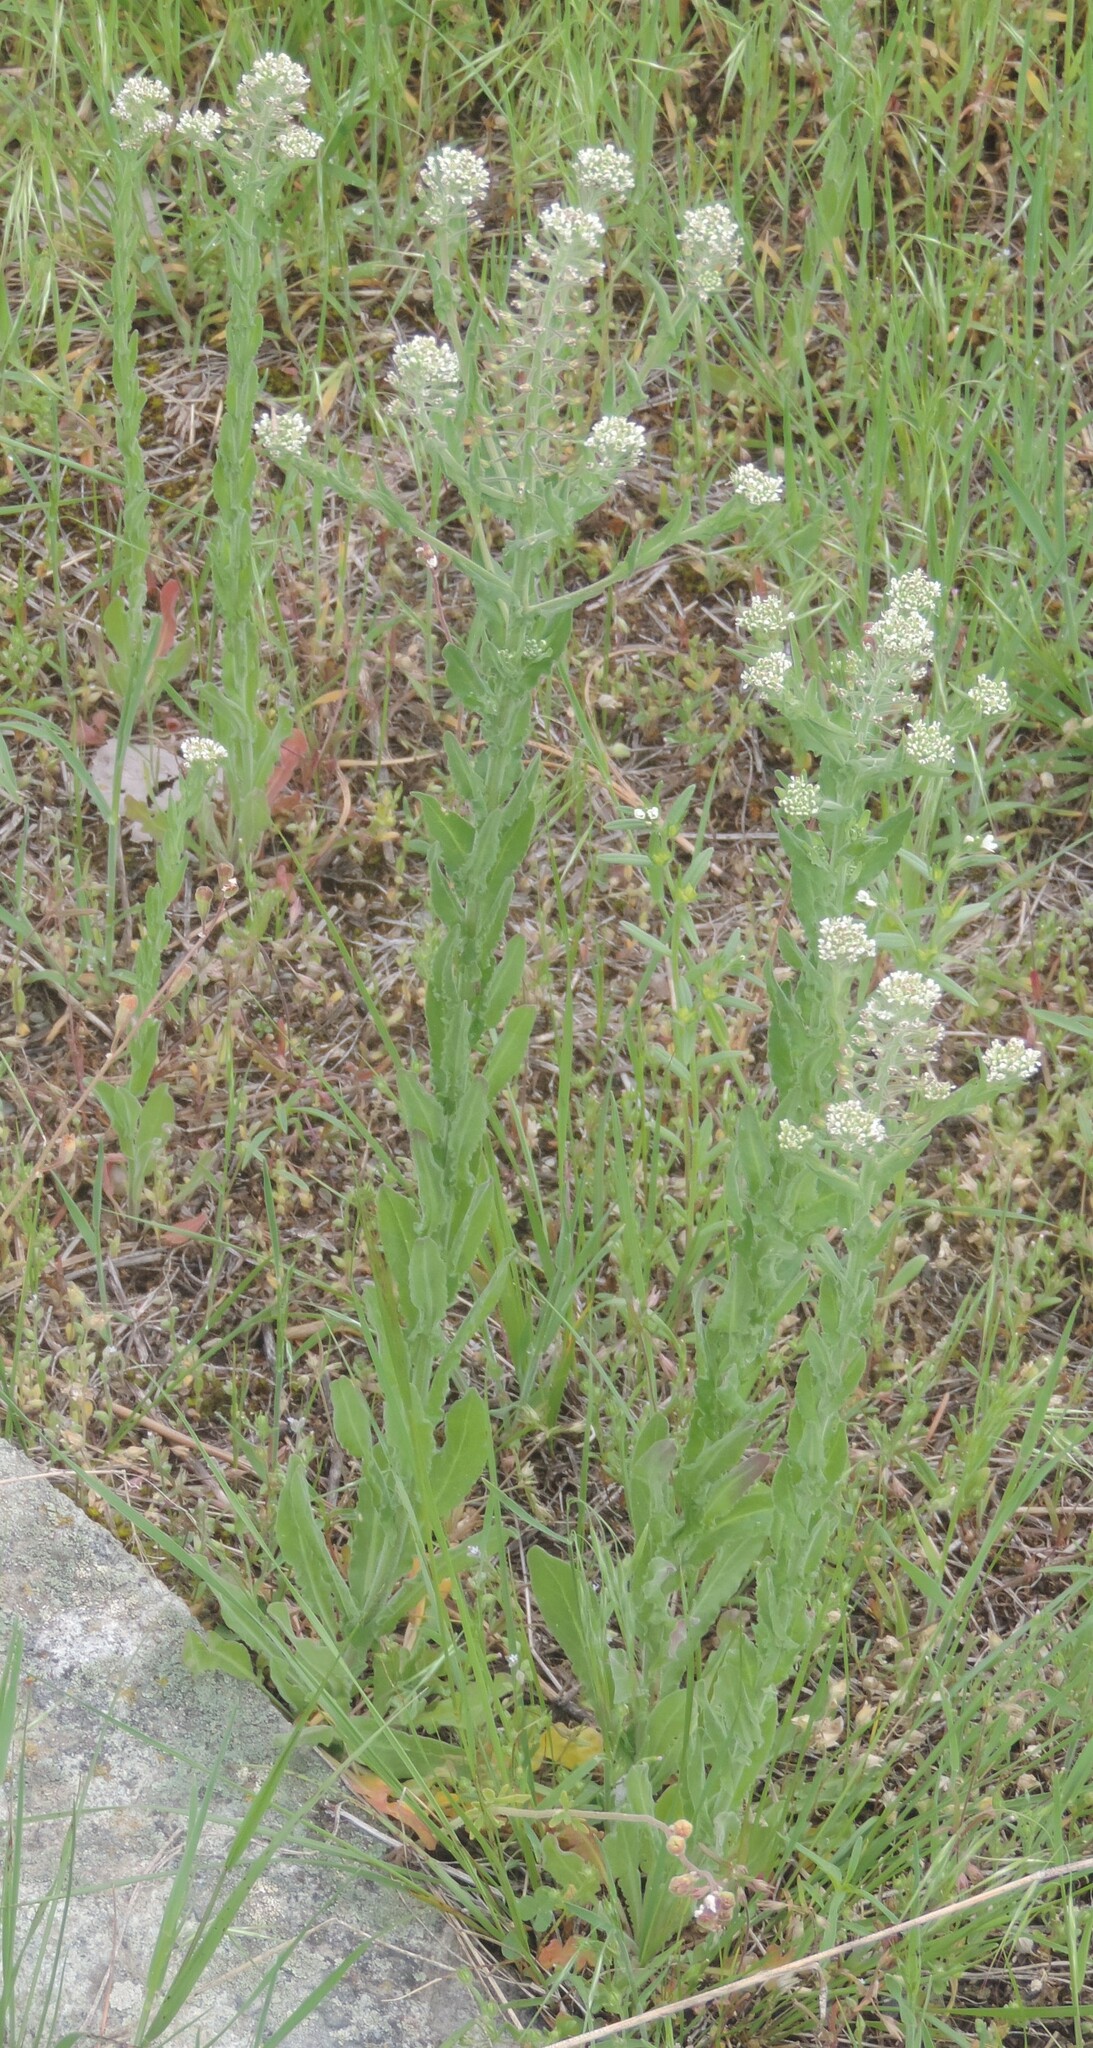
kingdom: Plantae
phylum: Tracheophyta
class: Magnoliopsida
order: Brassicales
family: Brassicaceae
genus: Lepidium
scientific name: Lepidium campestre
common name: Field pepperwort
